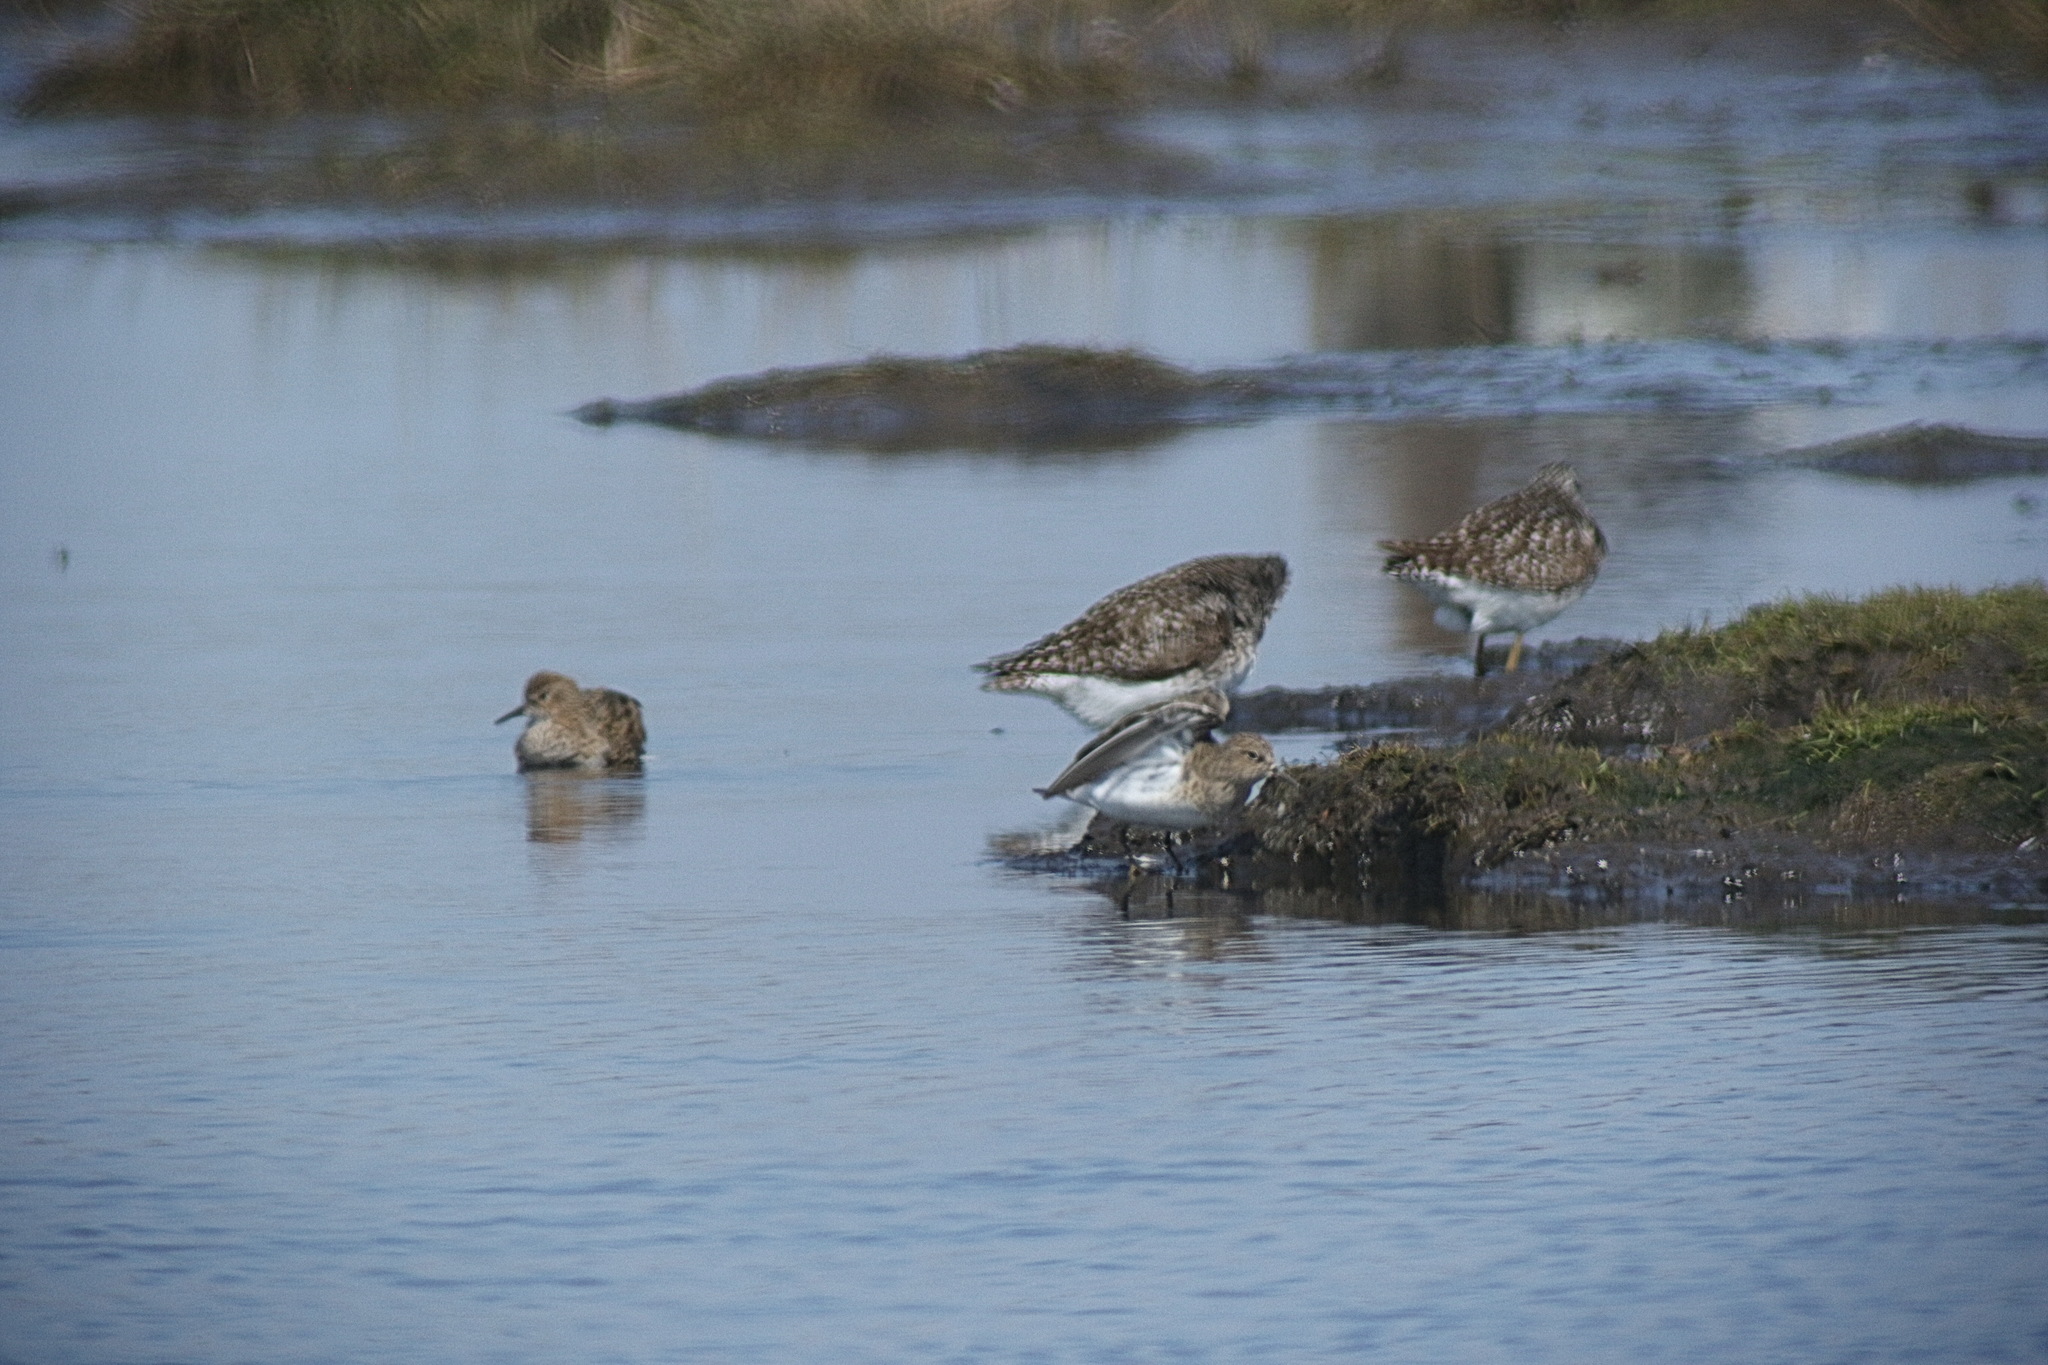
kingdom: Animalia
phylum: Chordata
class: Aves
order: Charadriiformes
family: Scolopacidae
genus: Calidris
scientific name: Calidris temminckii
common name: Temminck's stint
